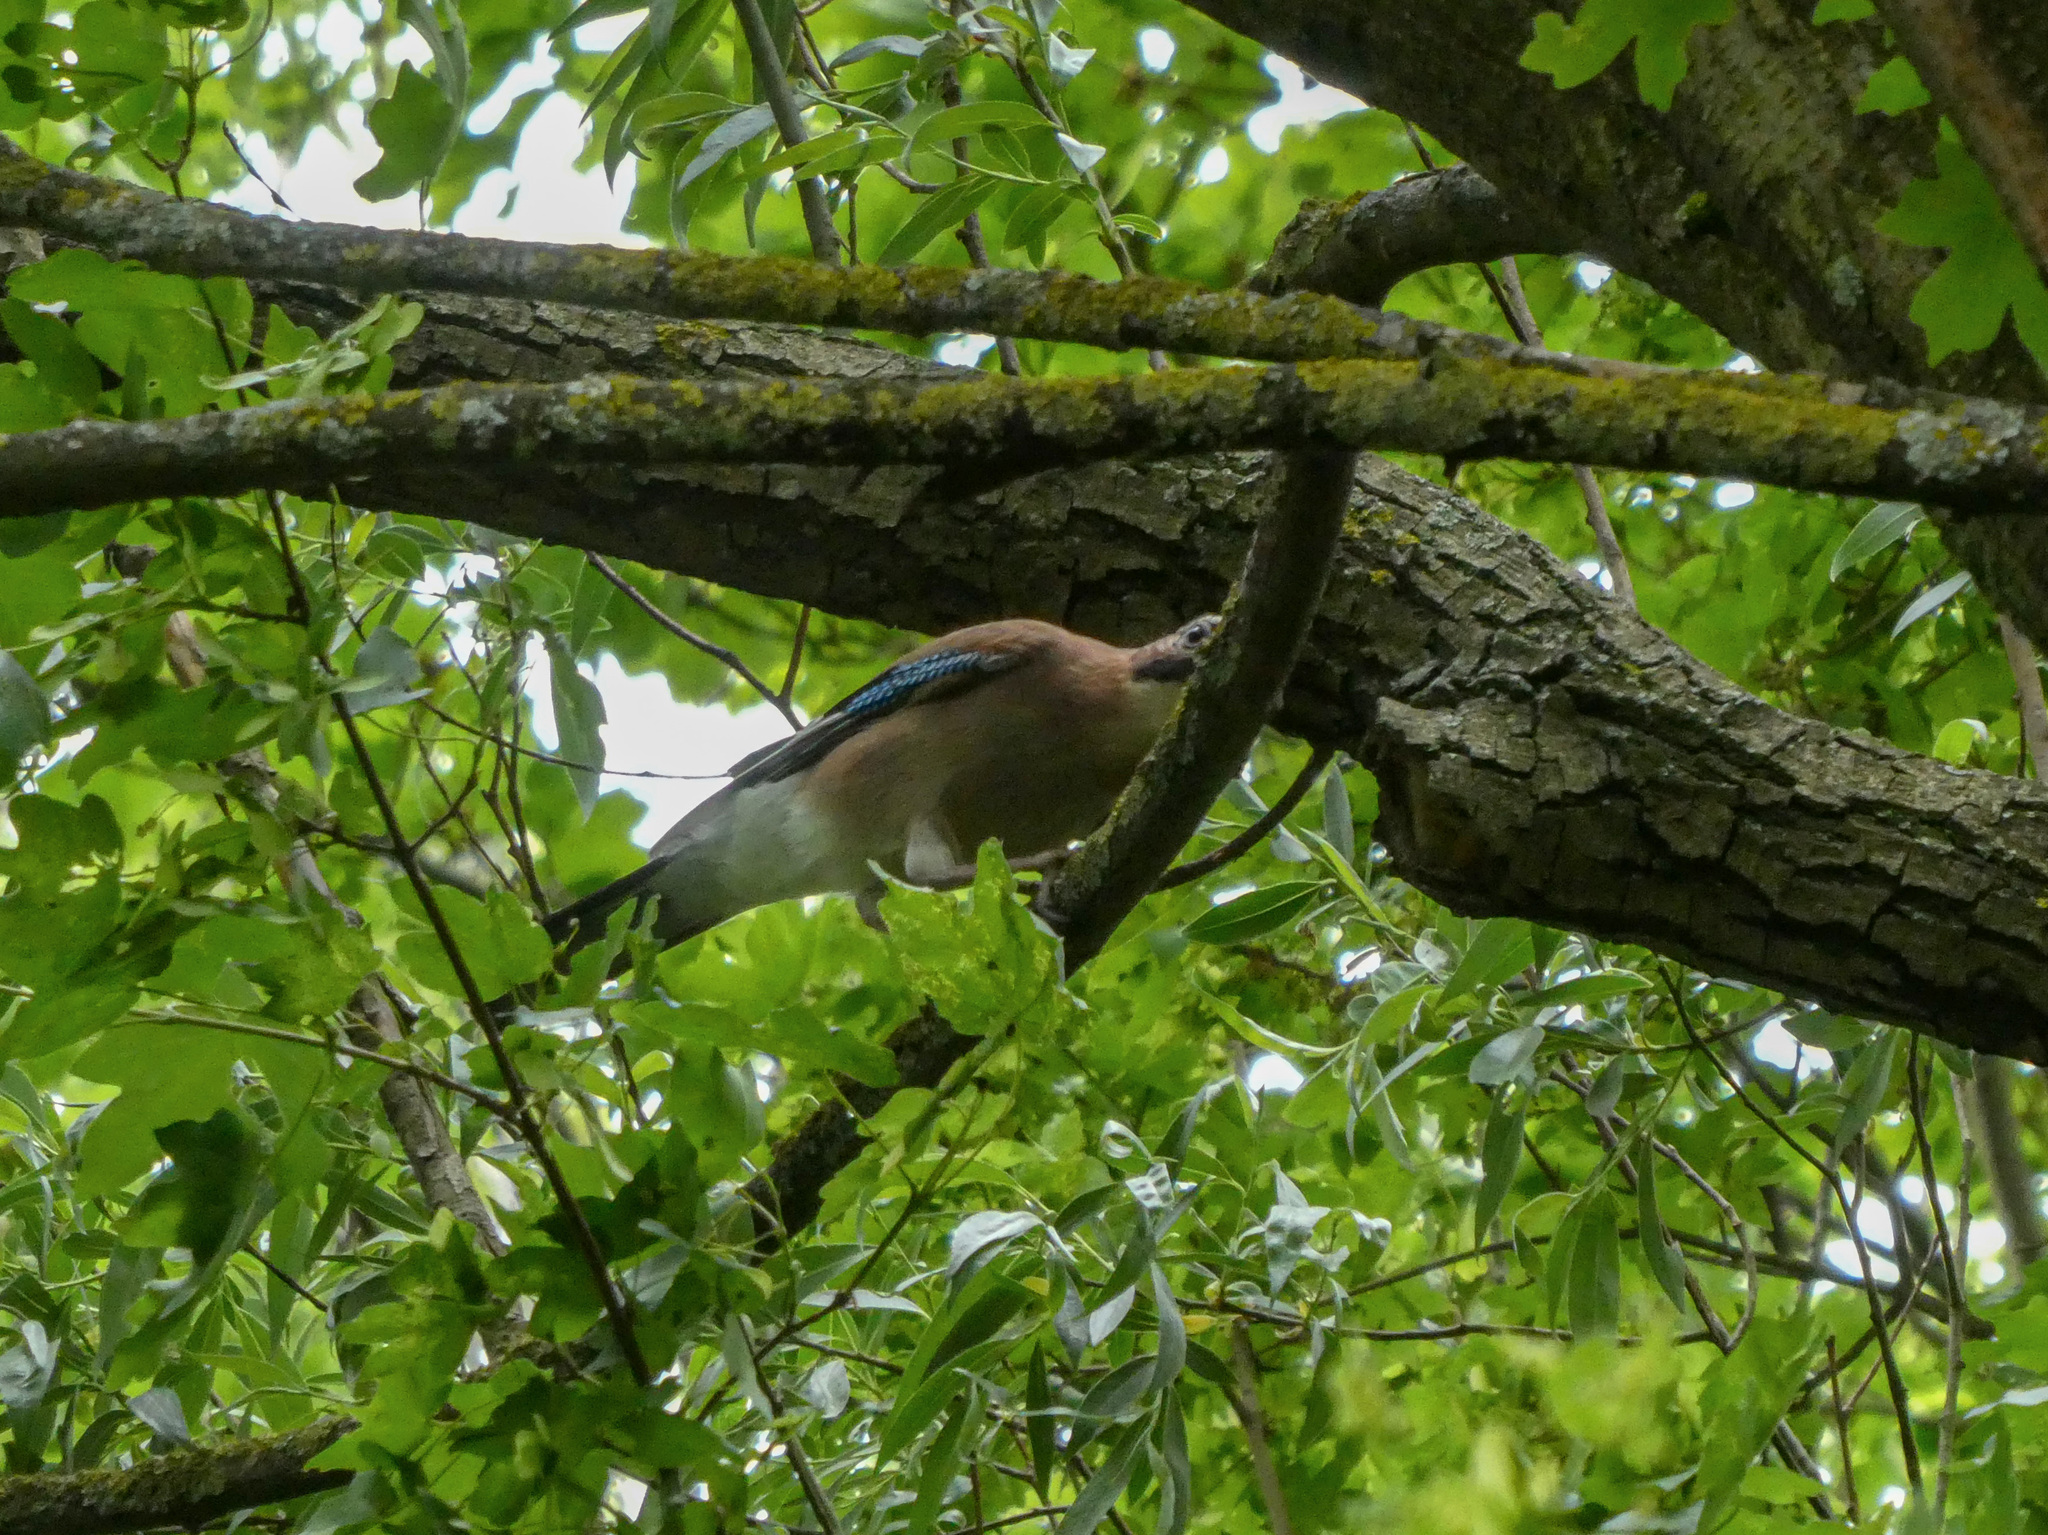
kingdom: Animalia
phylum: Chordata
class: Aves
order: Passeriformes
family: Corvidae
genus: Garrulus
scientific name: Garrulus glandarius
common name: Eurasian jay
